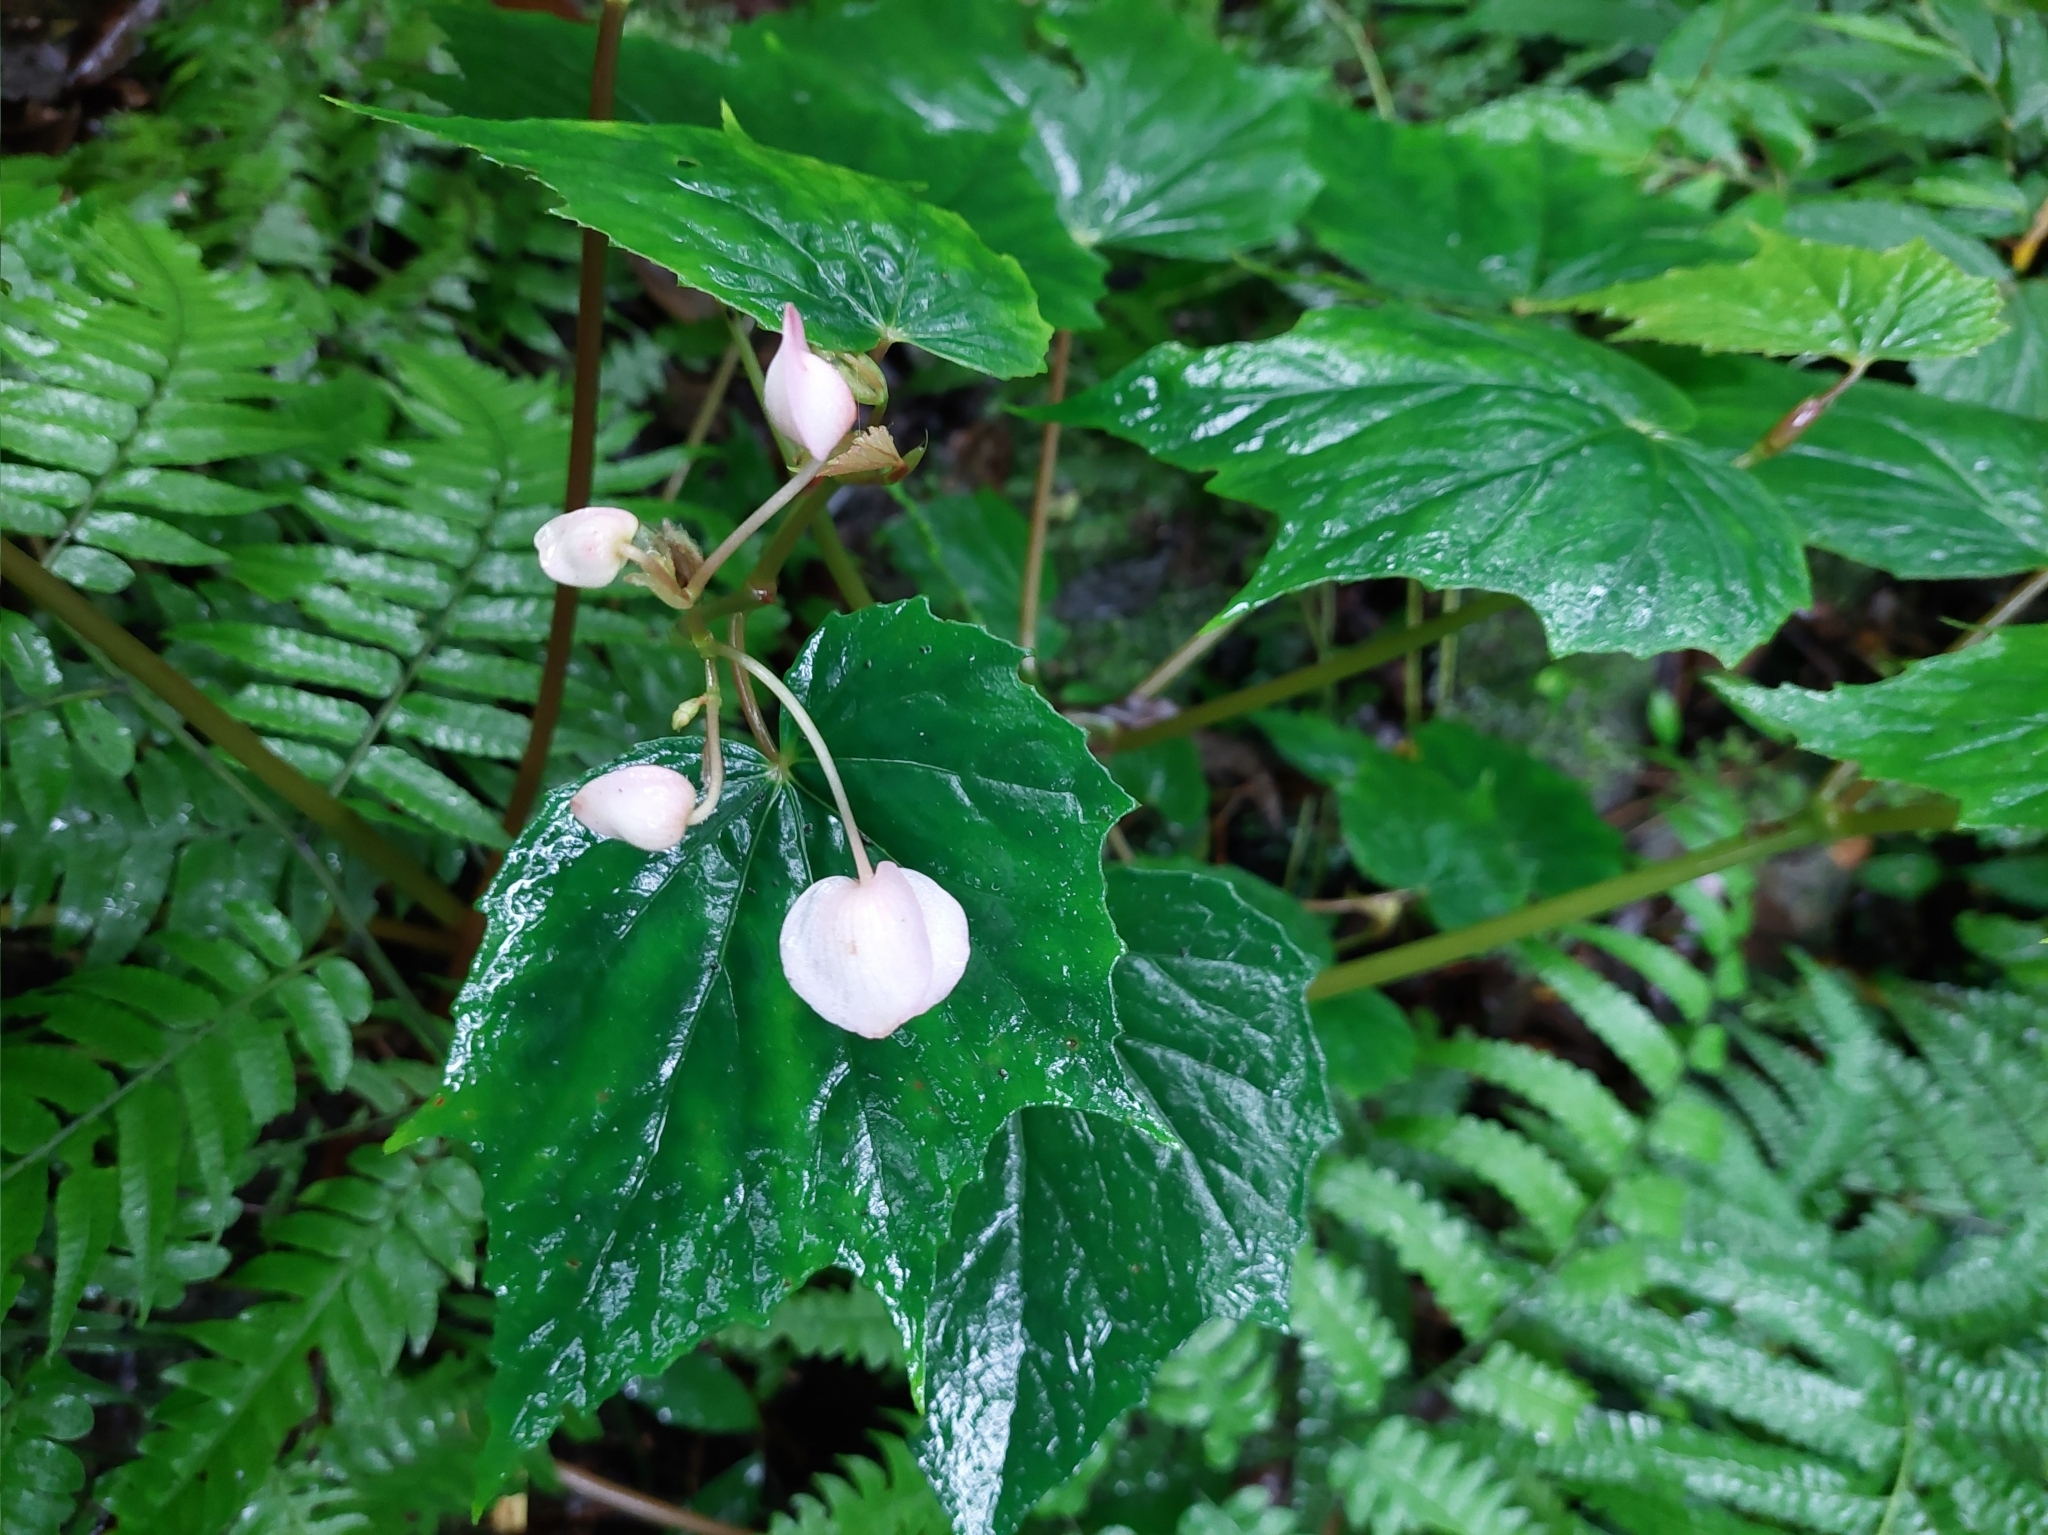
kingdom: Plantae
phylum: Tracheophyta
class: Magnoliopsida
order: Cucurbitales
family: Begoniaceae
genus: Begonia
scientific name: Begonia formosana
